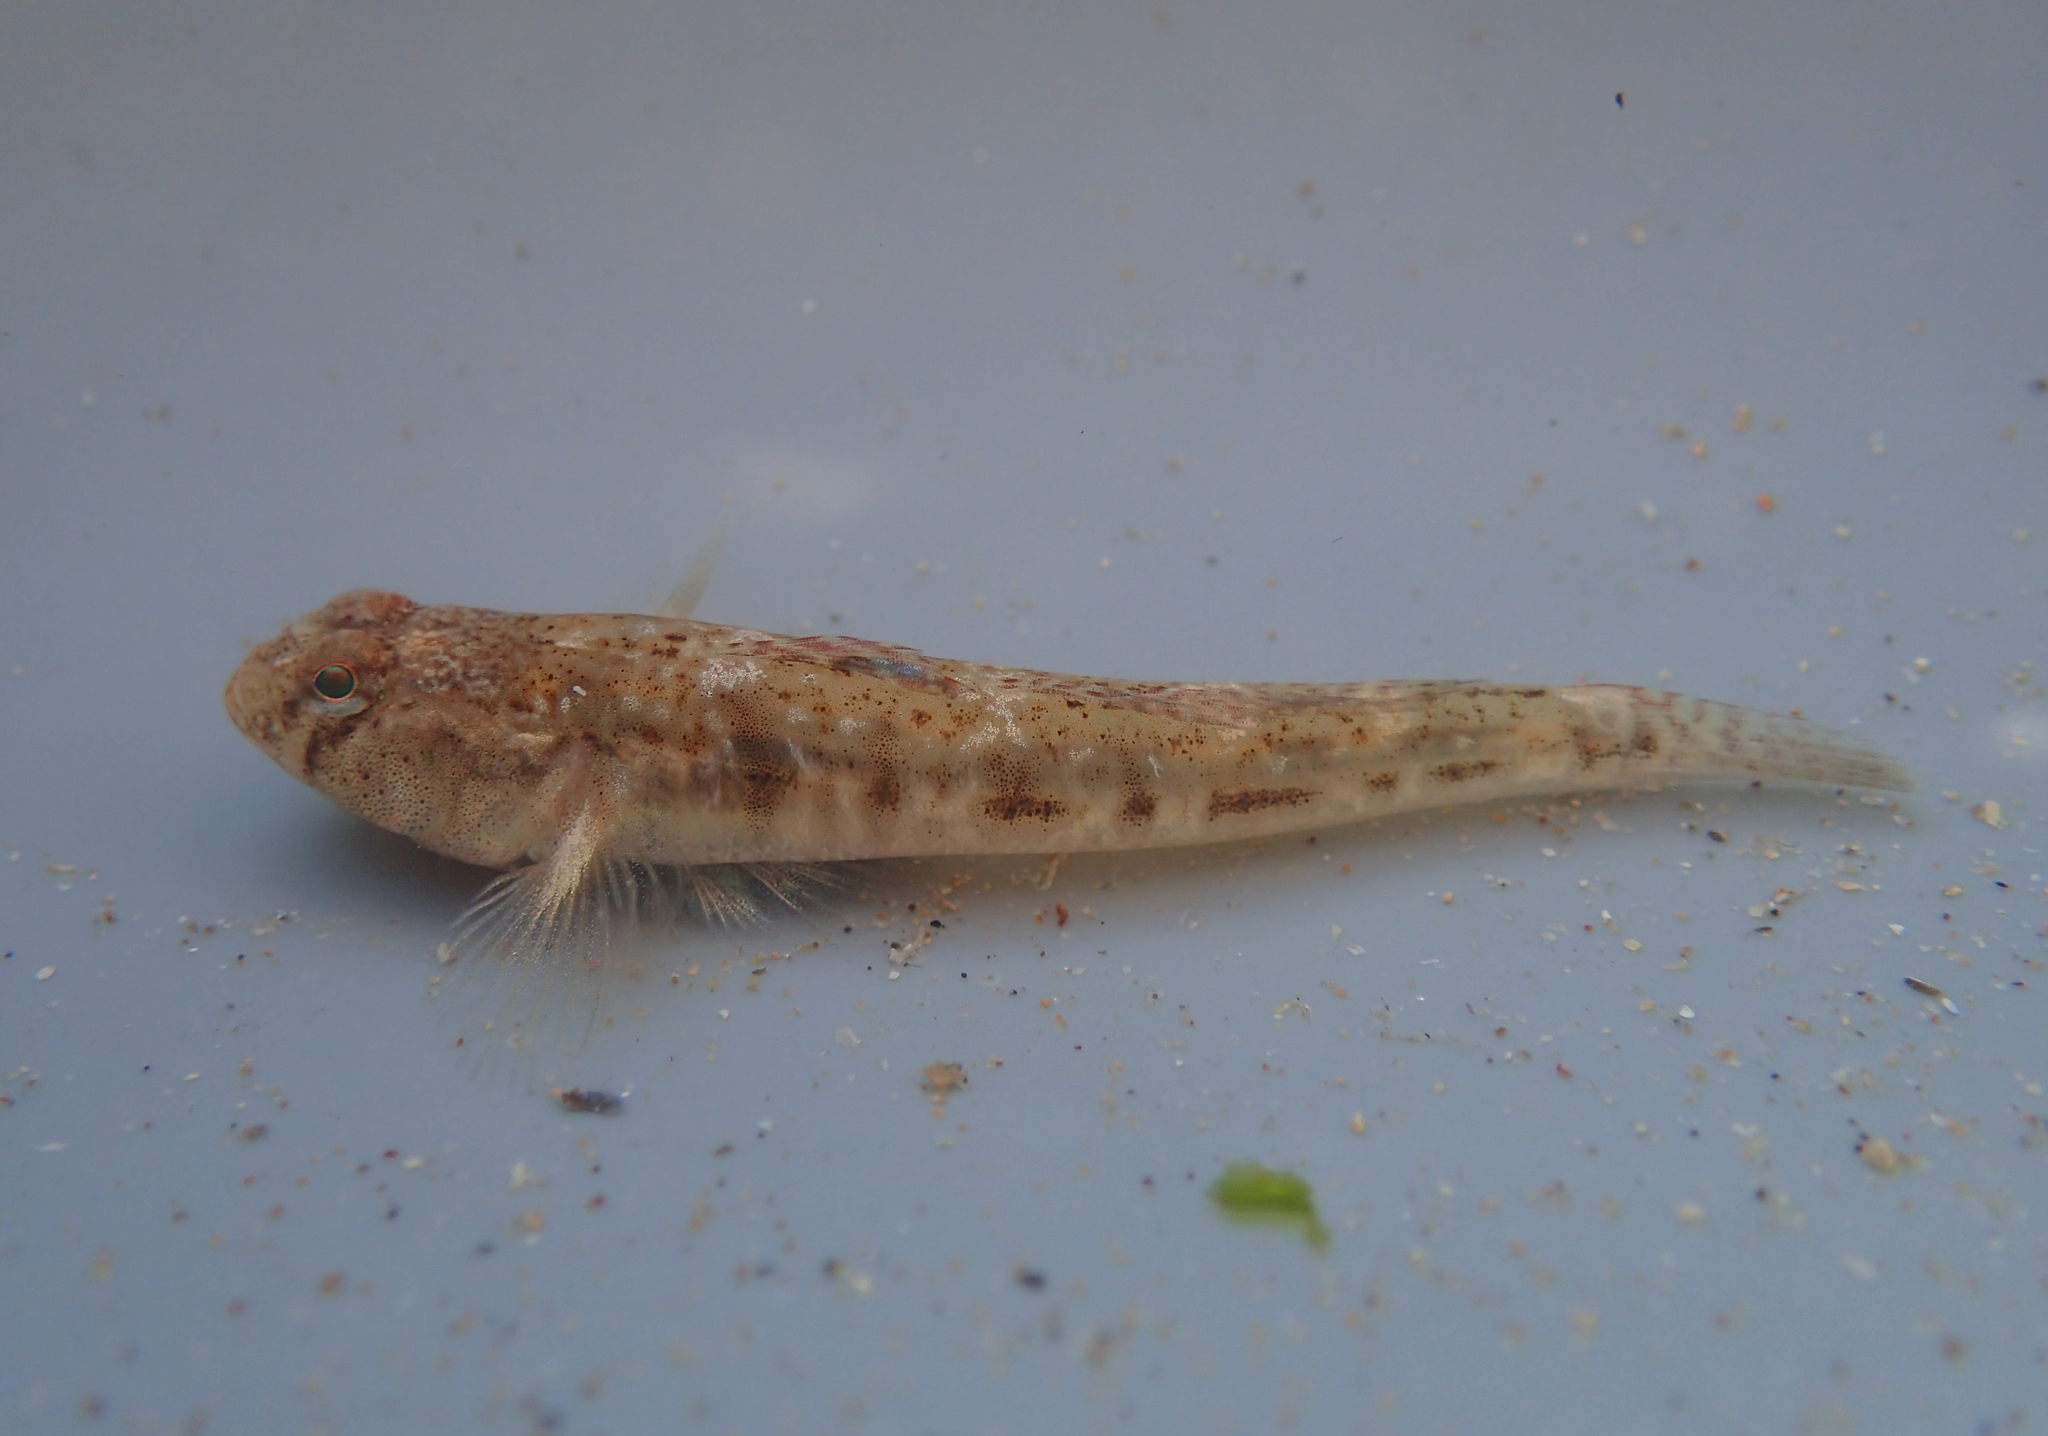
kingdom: Animalia
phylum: Chordata
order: Perciformes
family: Gobiidae
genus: Pomatoschistus
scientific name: Pomatoschistus microps
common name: Common goby
